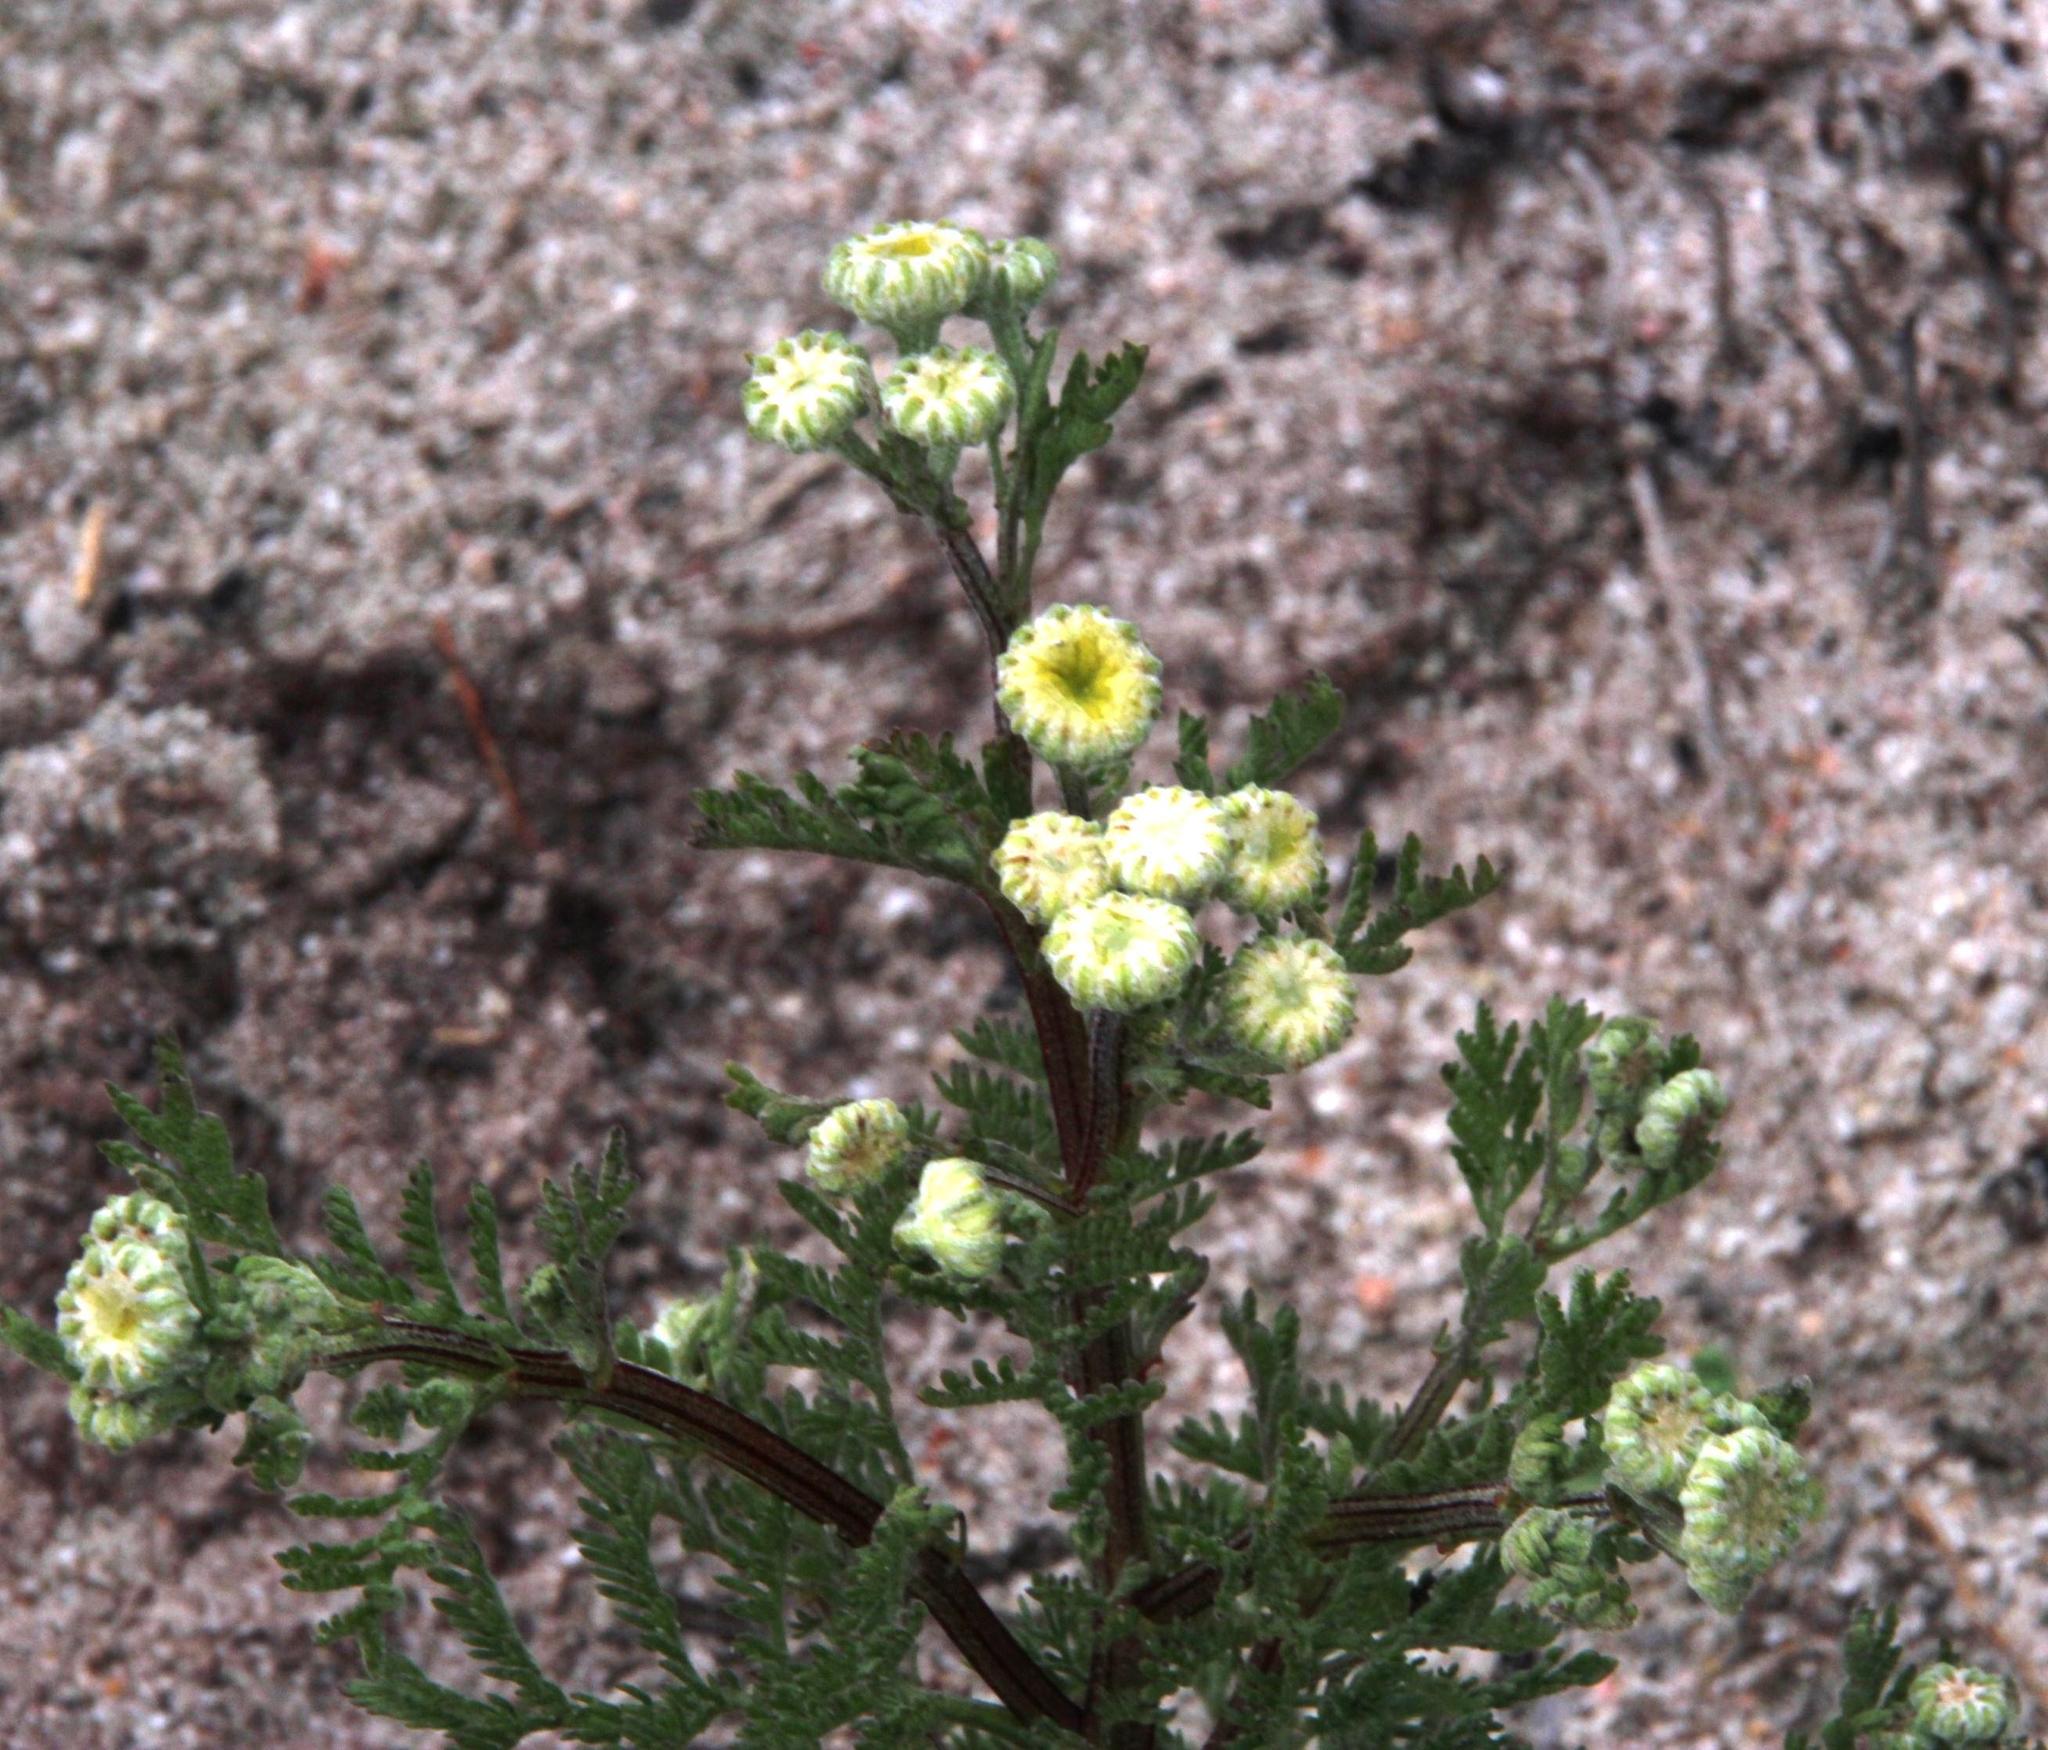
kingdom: Plantae
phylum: Tracheophyta
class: Magnoliopsida
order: Asterales
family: Asteraceae
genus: Oncosiphon
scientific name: Oncosiphon grandiflorus
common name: Swollen-flowered maywood
